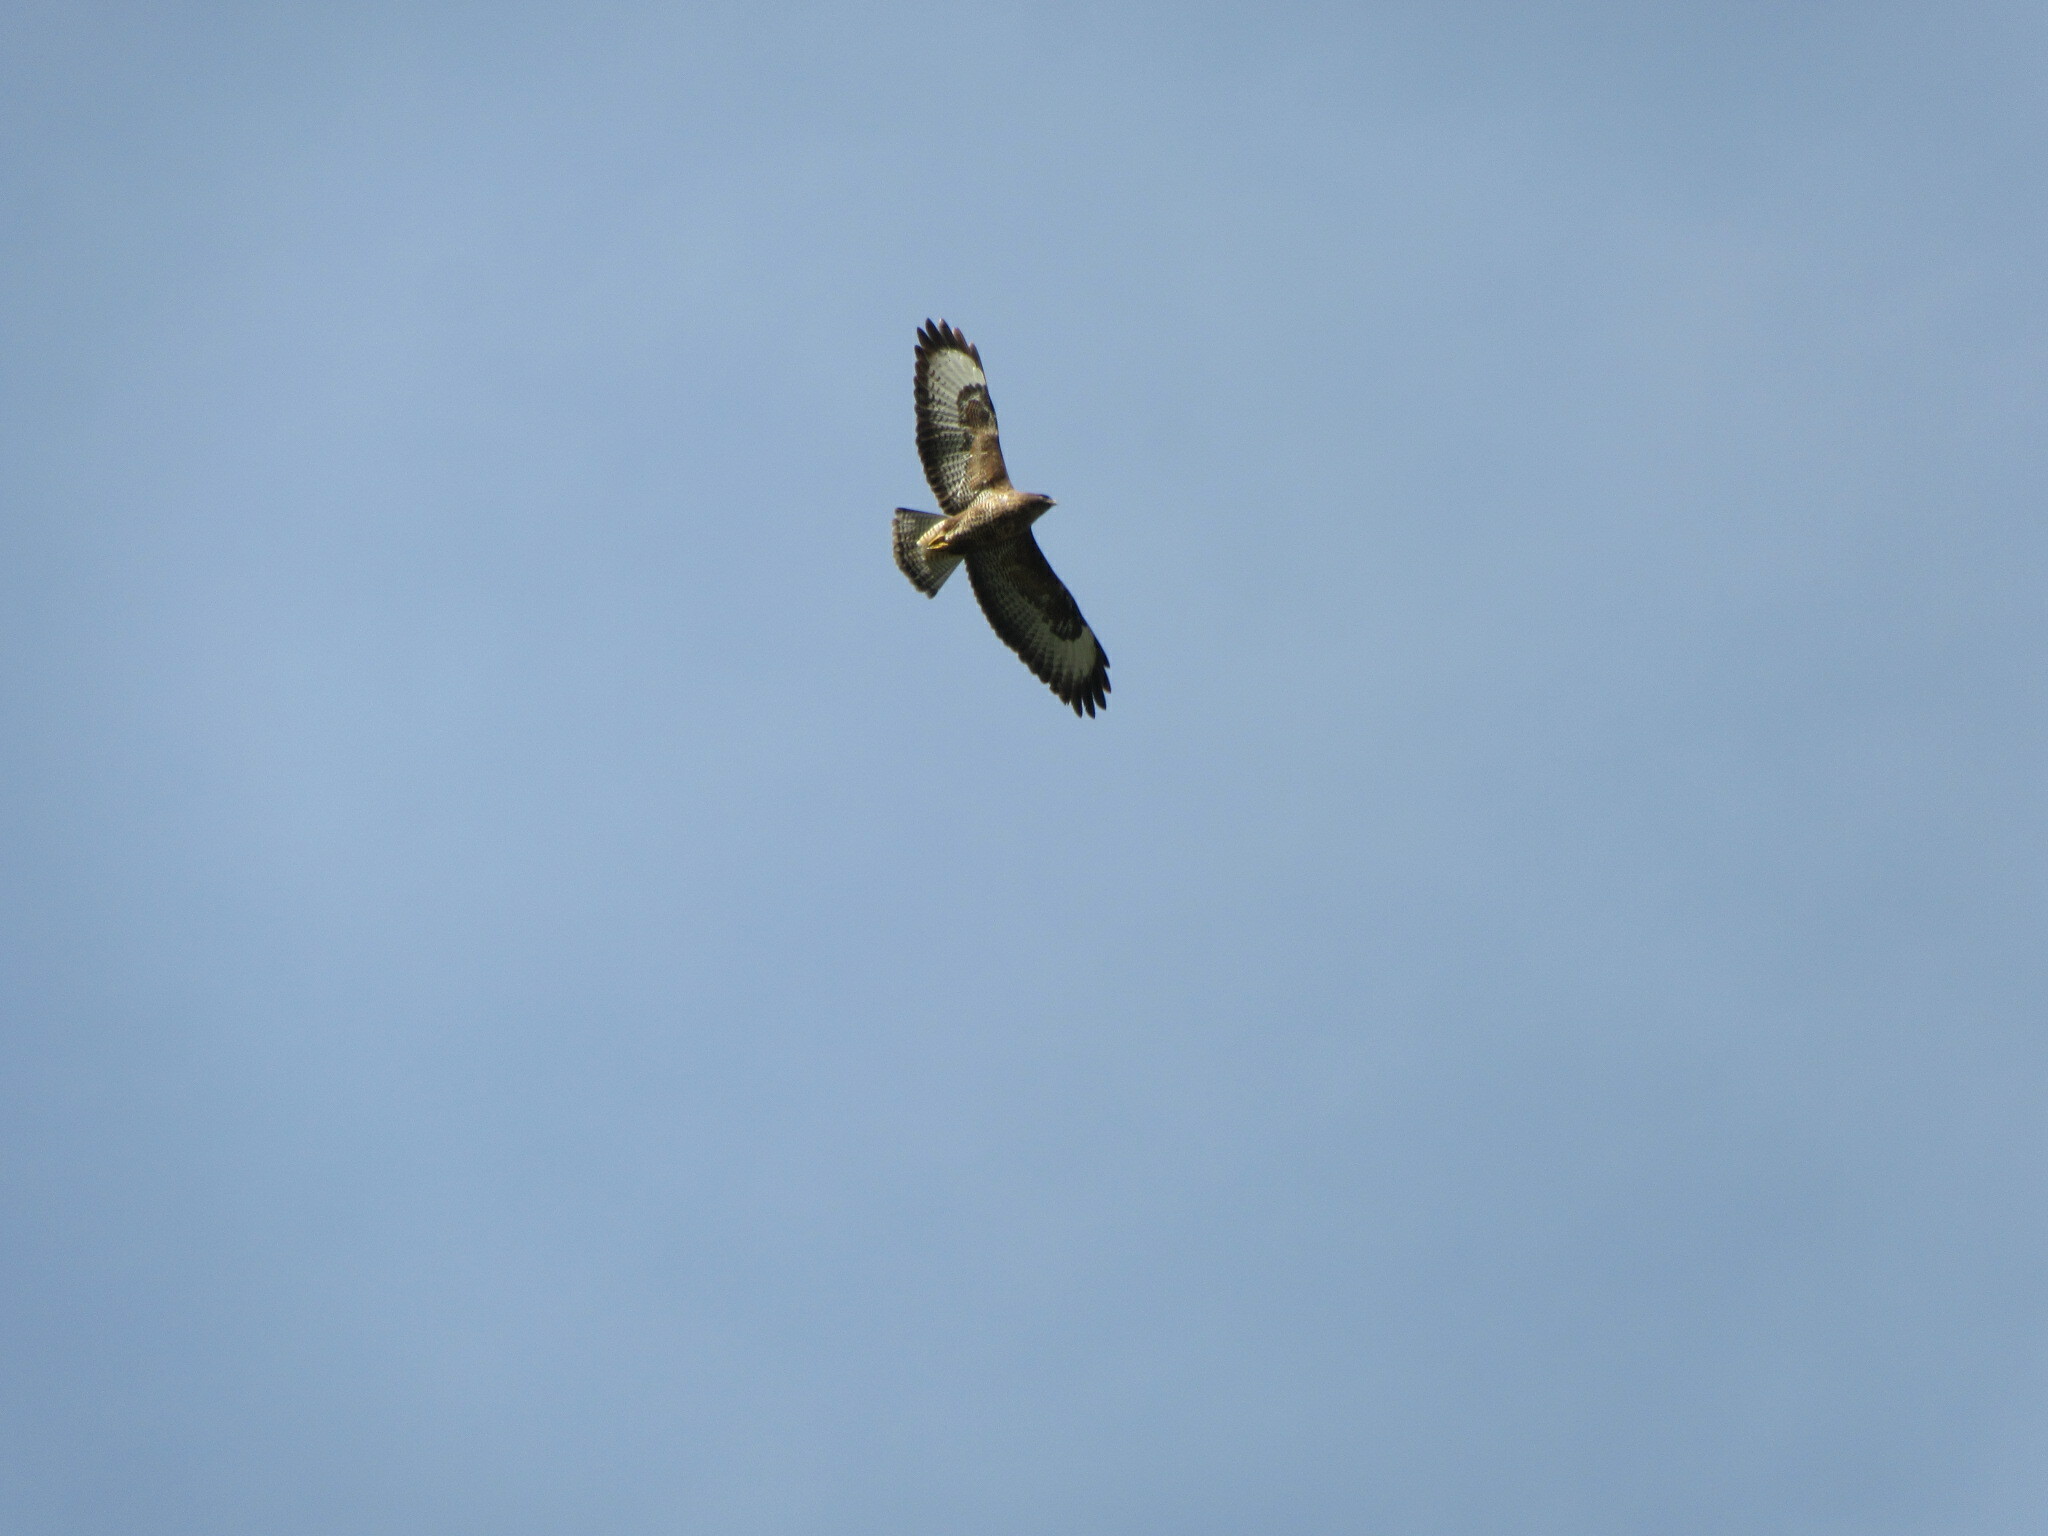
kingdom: Animalia
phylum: Chordata
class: Aves
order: Accipitriformes
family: Accipitridae
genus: Buteo
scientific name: Buteo buteo
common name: Common buzzard
